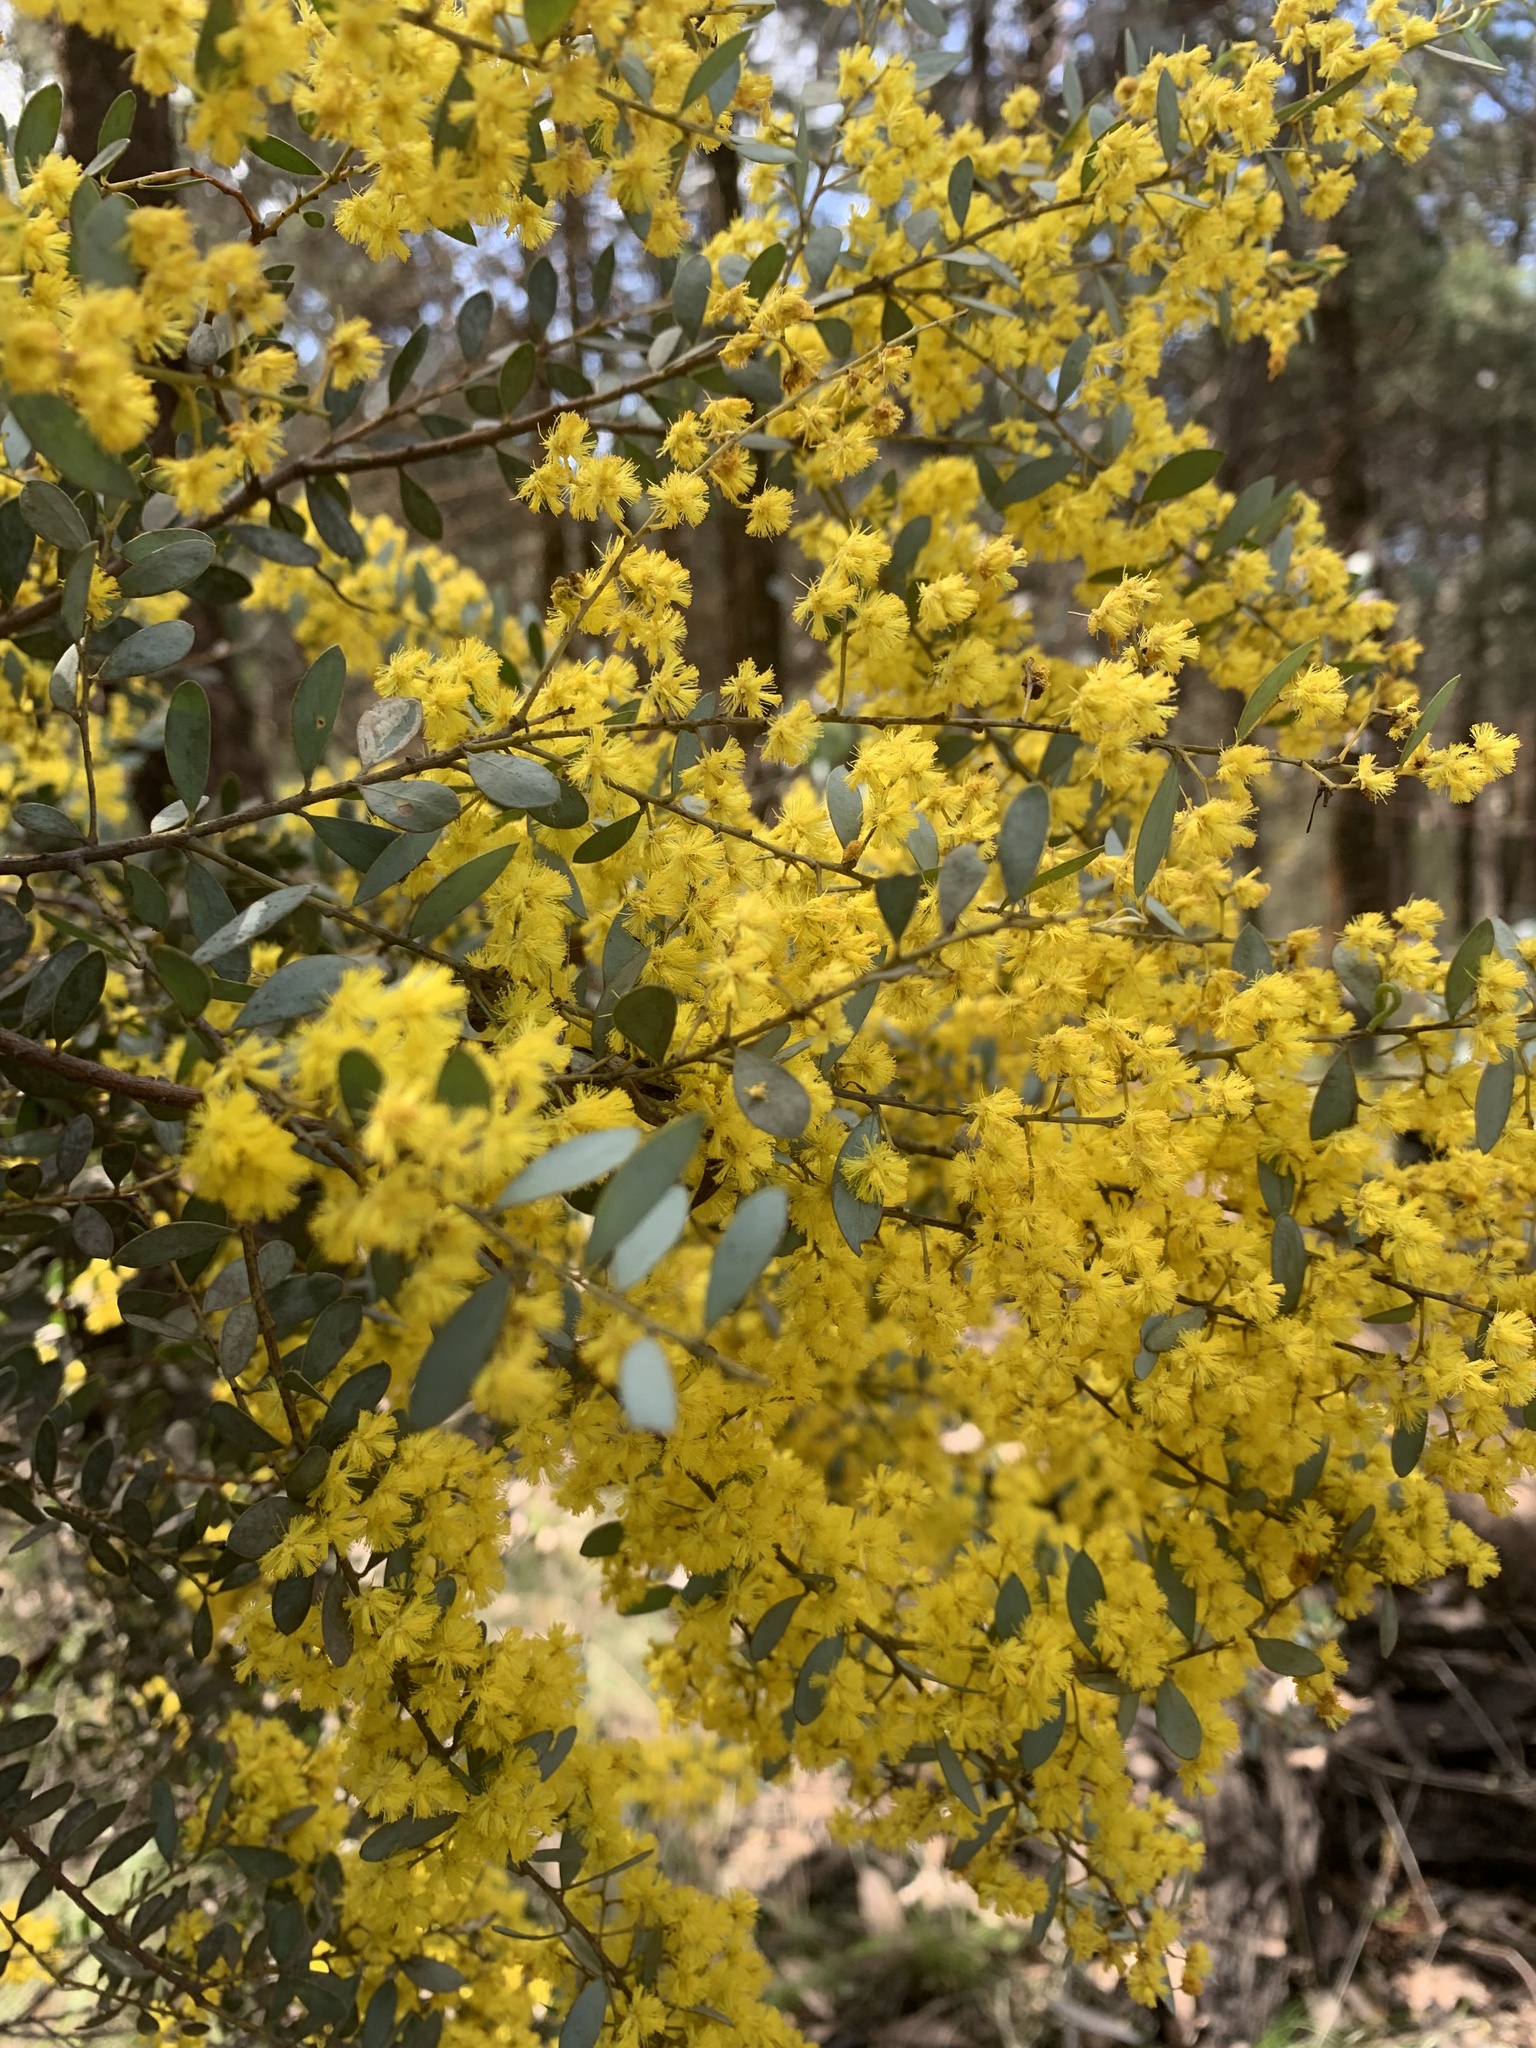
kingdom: Plantae
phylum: Tracheophyta
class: Magnoliopsida
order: Fabales
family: Fabaceae
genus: Acacia
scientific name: Acacia buxifolia
